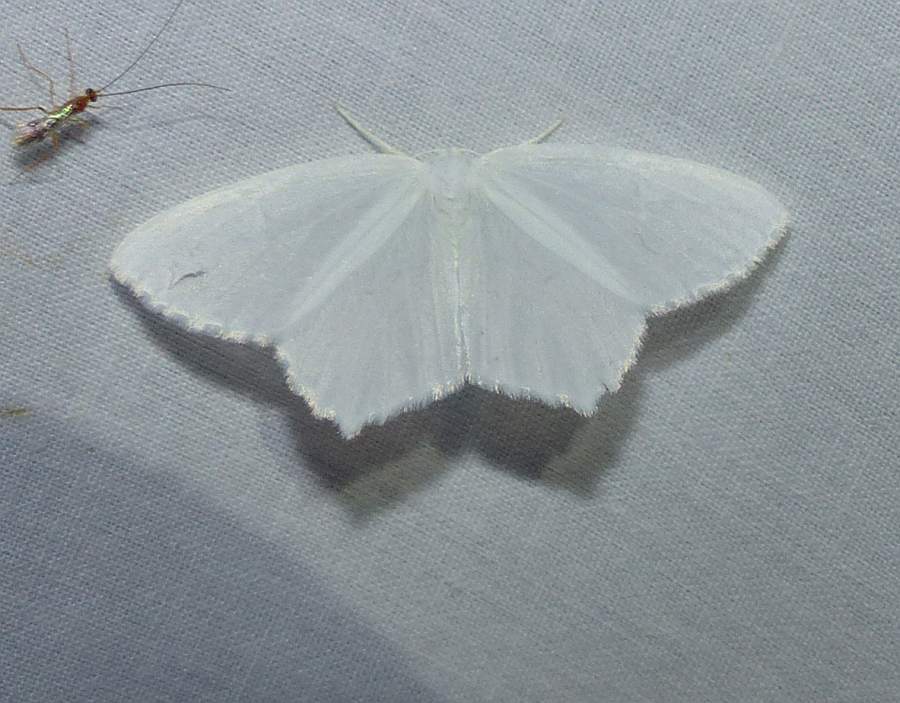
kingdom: Animalia
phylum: Arthropoda
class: Insecta
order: Lepidoptera
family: Geometridae
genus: Eugonobapta
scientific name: Eugonobapta nivosaria
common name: Snowy geometer
